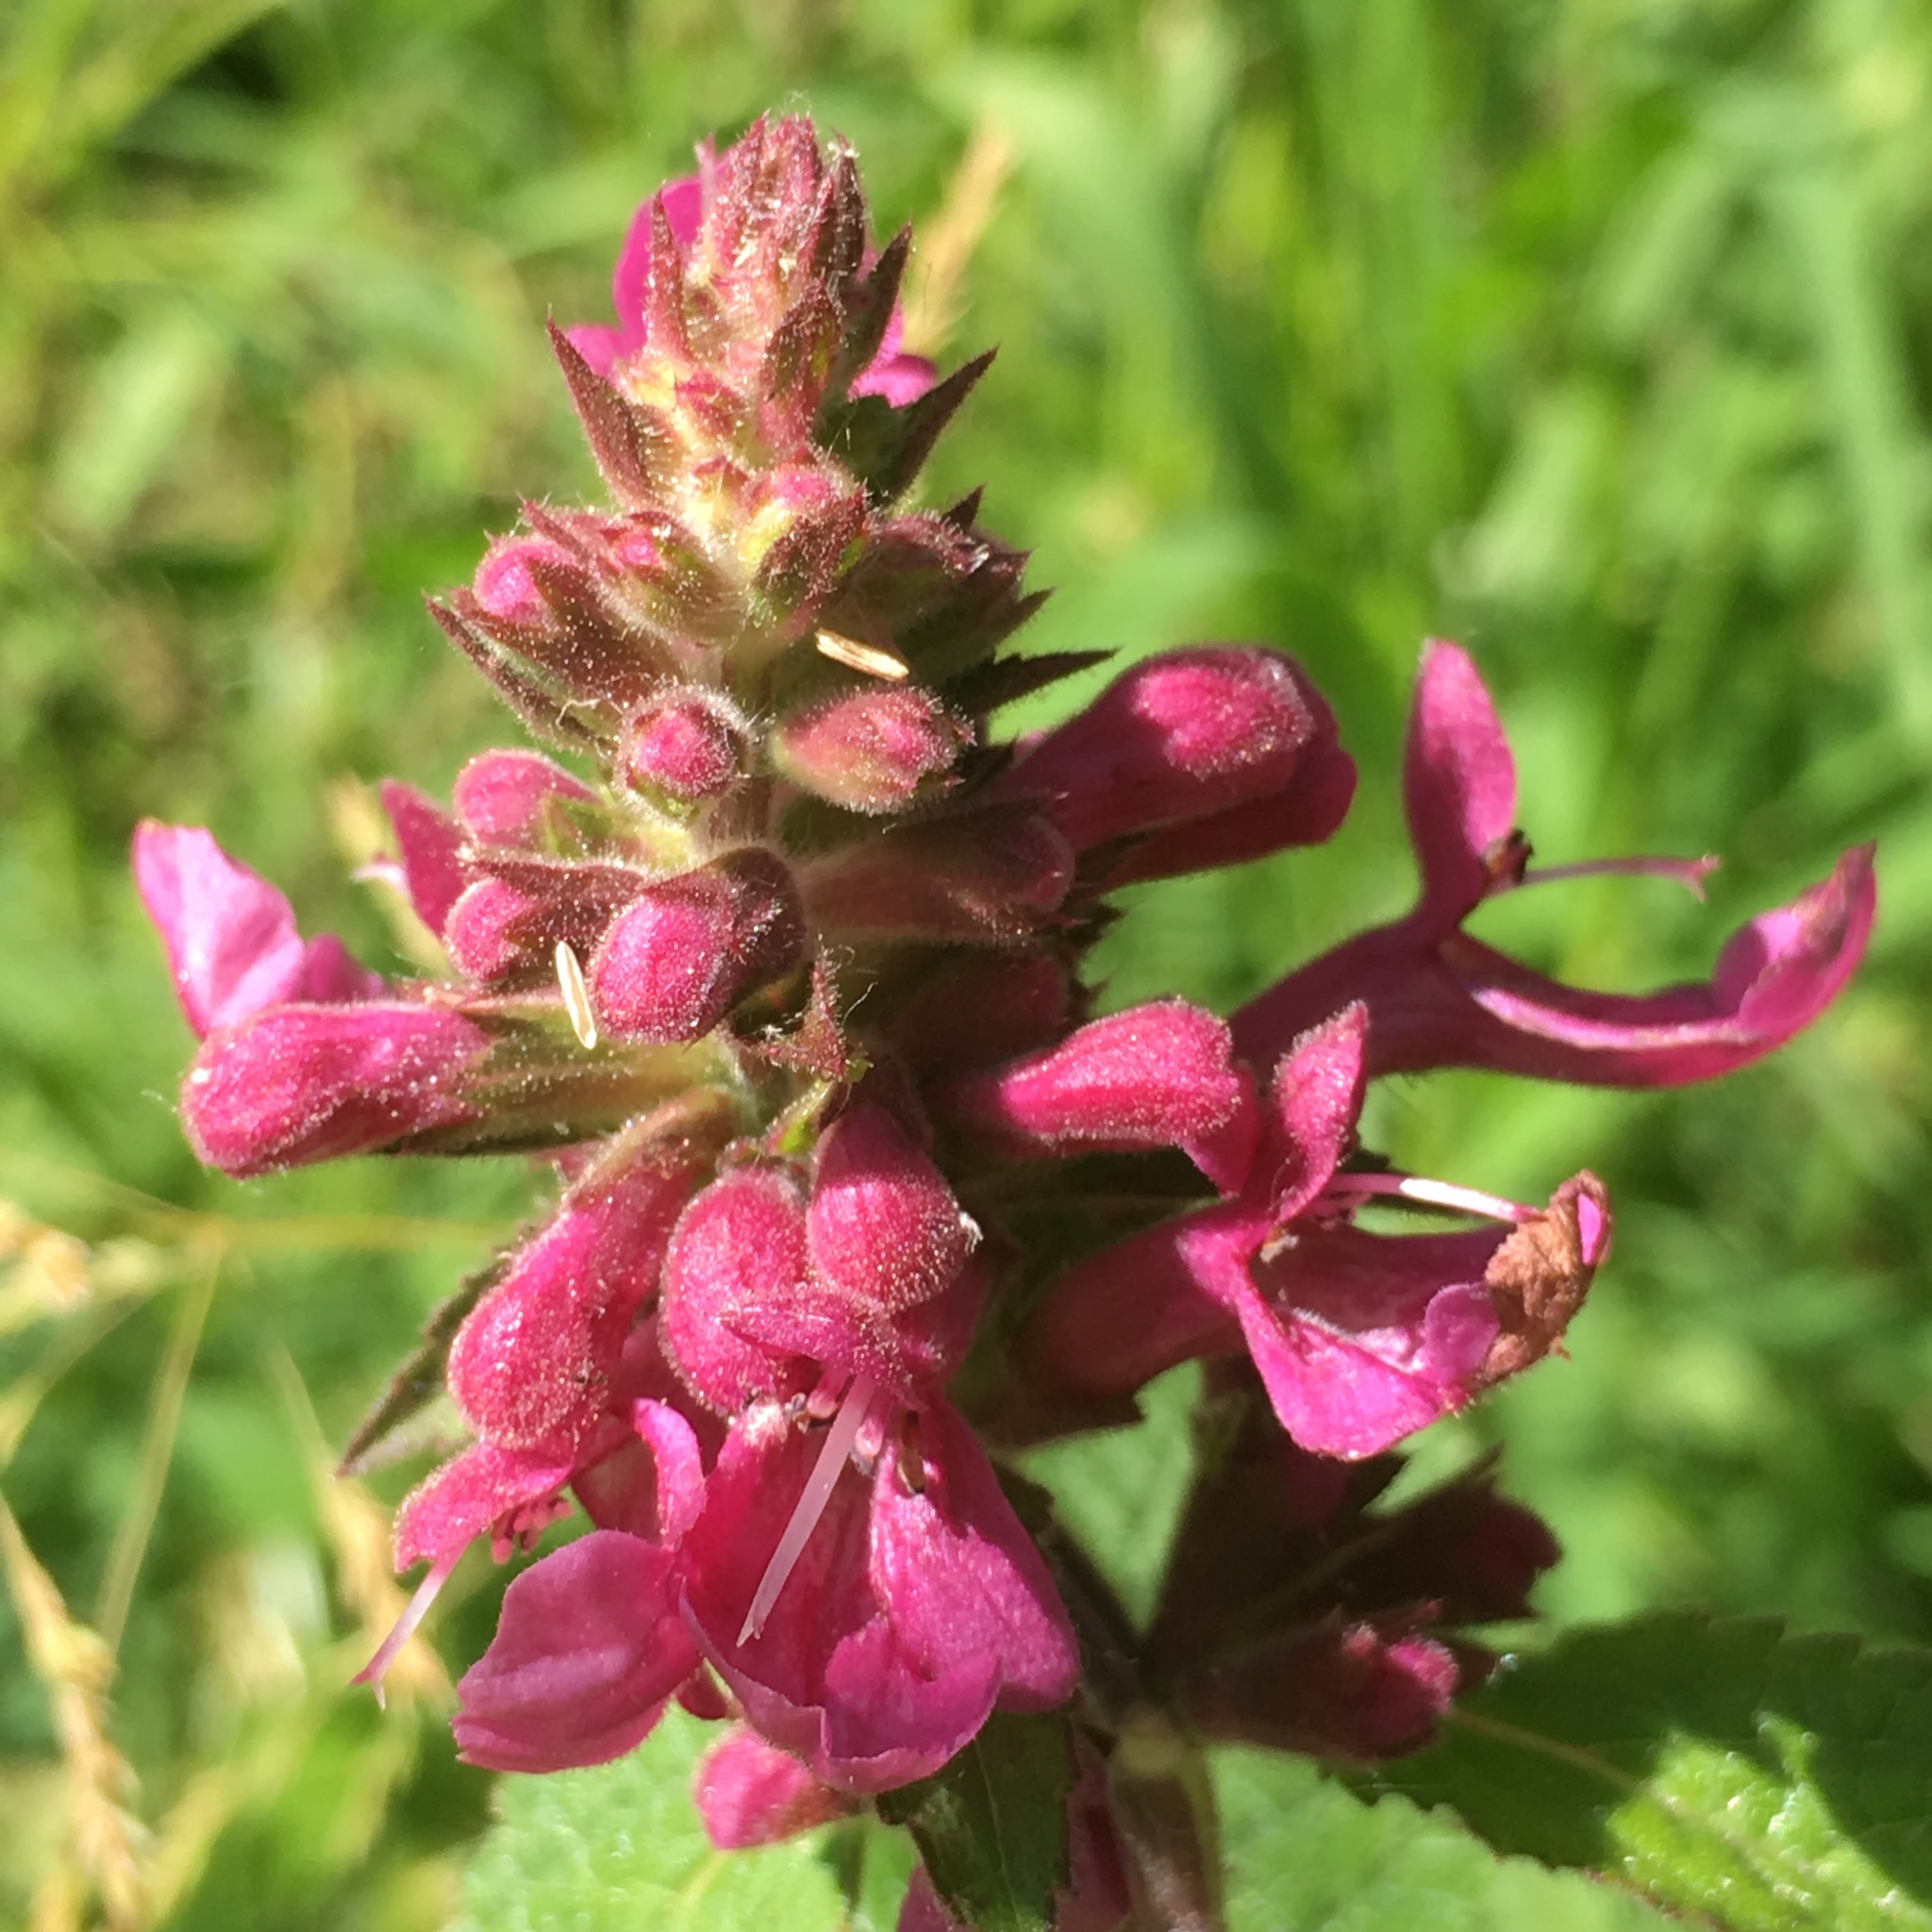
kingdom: Plantae
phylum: Tracheophyta
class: Magnoliopsida
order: Lamiales
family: Lamiaceae
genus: Stachys
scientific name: Stachys chamissonis
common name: Coastal hedge-nettle
